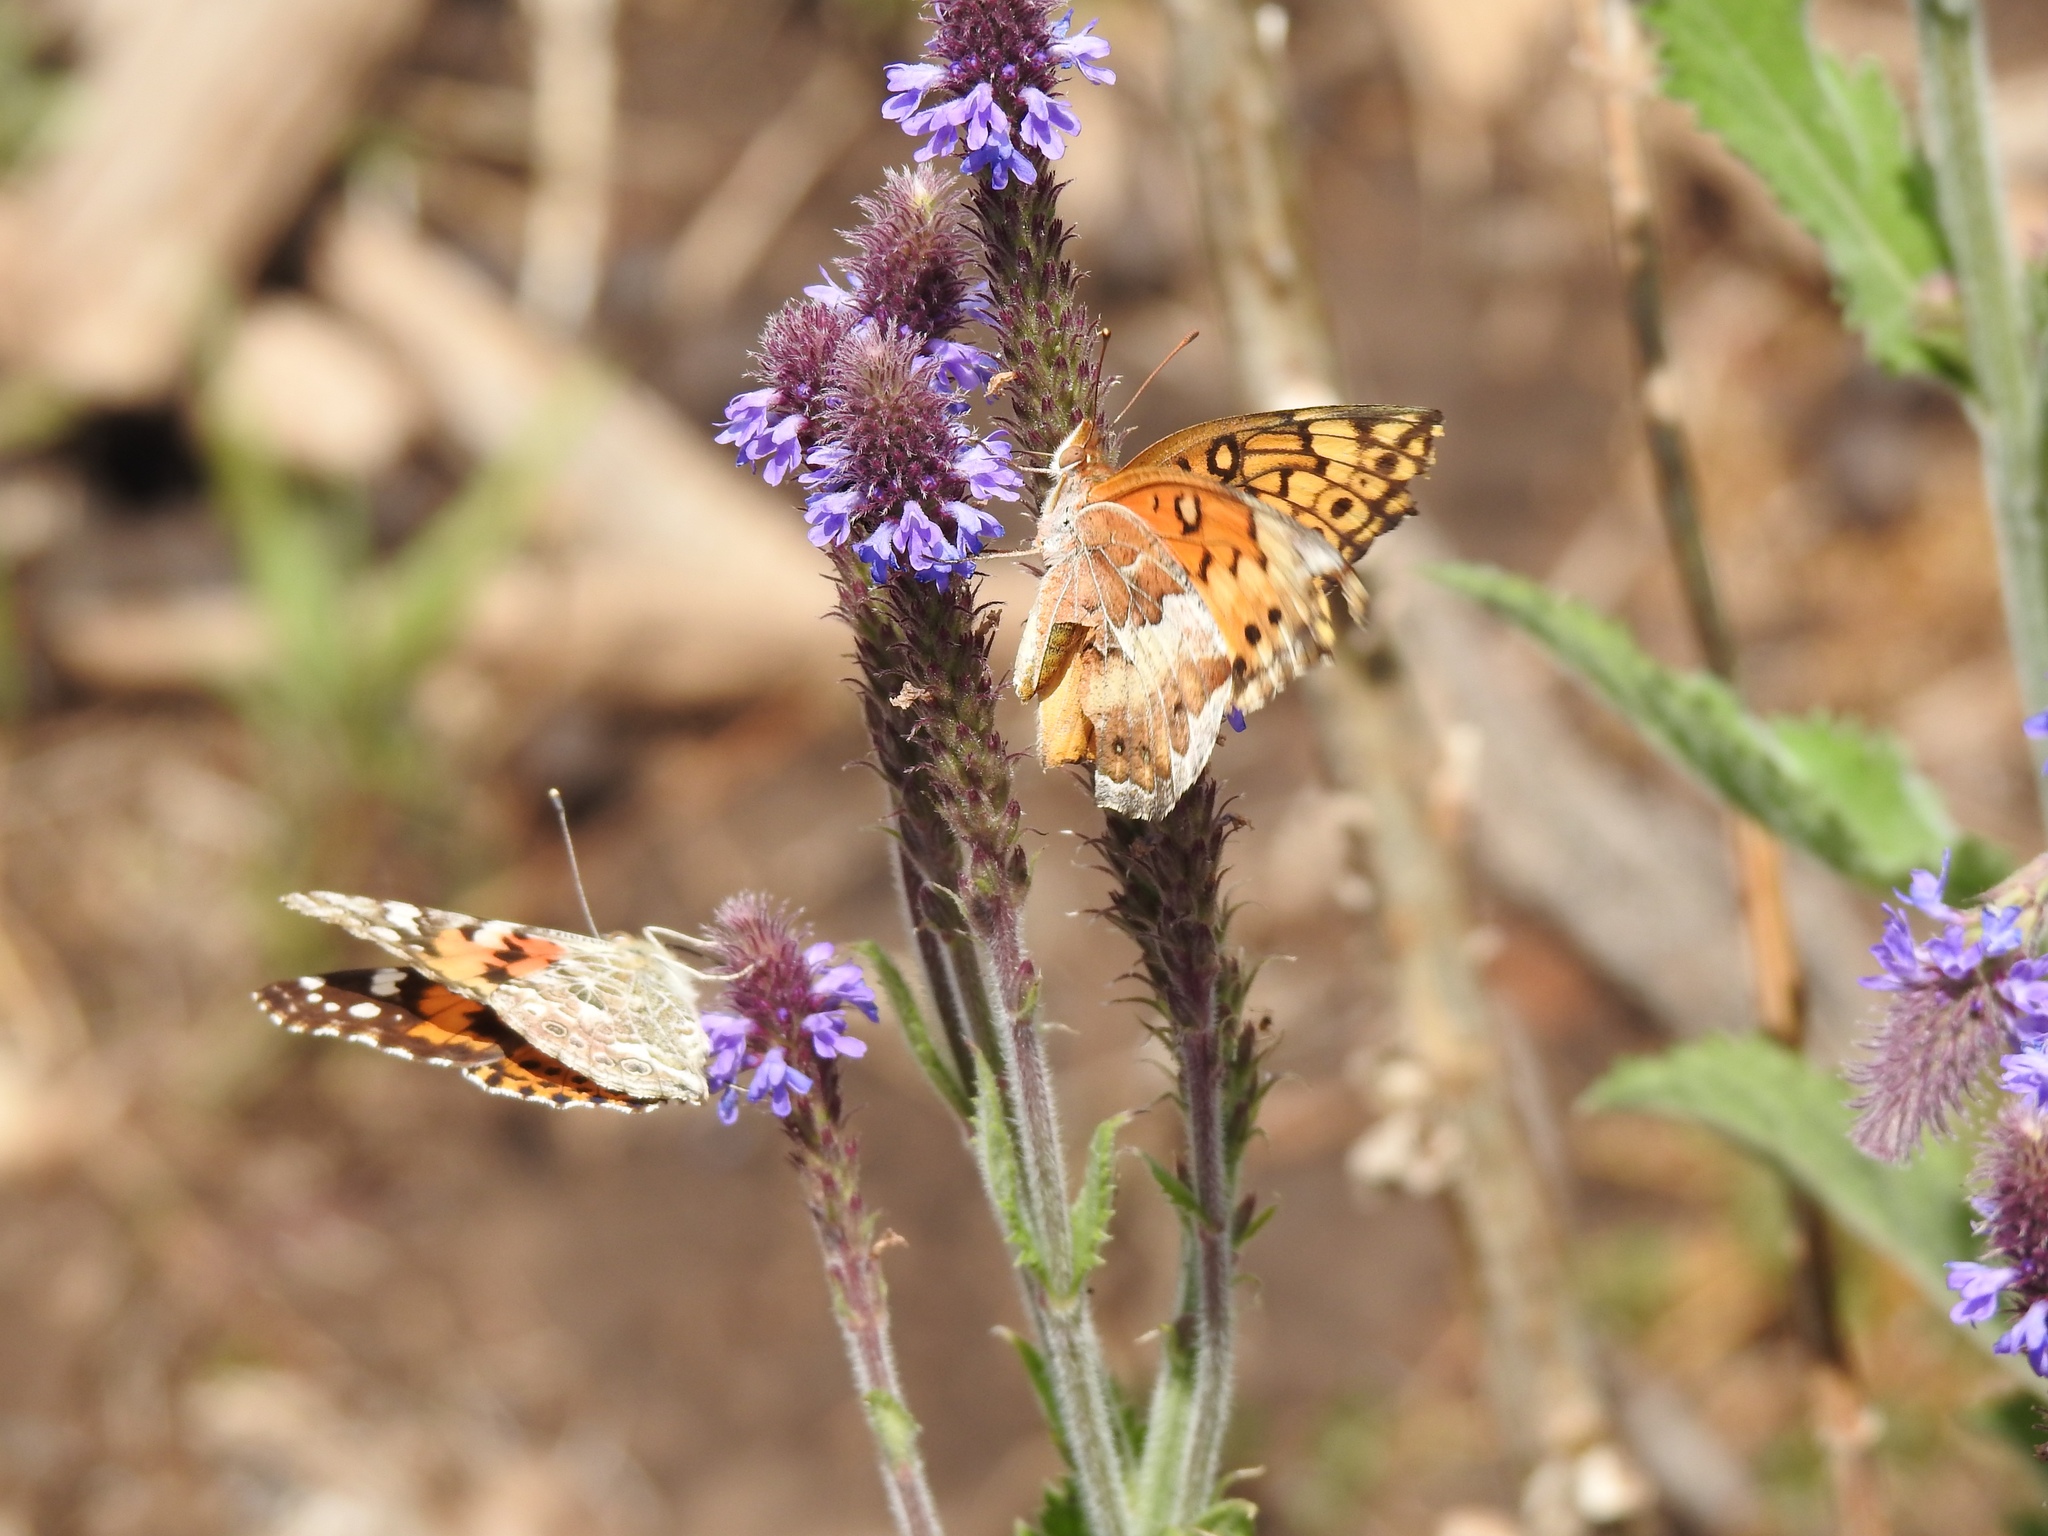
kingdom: Animalia
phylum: Arthropoda
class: Insecta
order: Lepidoptera
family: Nymphalidae
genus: Euptoieta
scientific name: Euptoieta claudia
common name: Variegated fritillary
